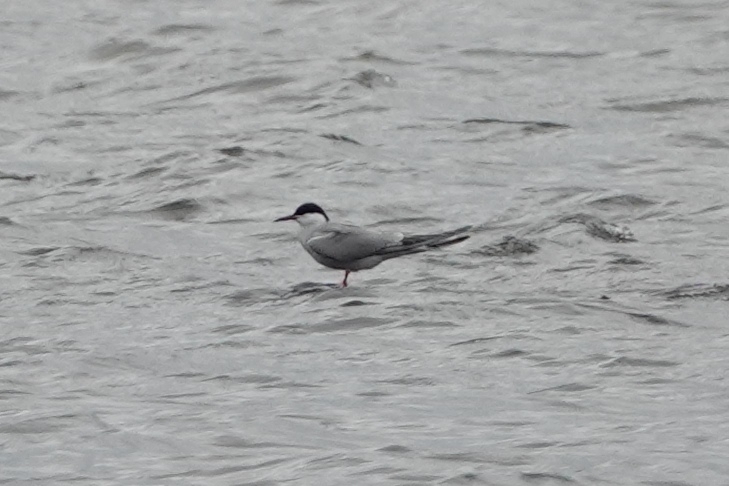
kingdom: Animalia
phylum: Chordata
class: Aves
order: Charadriiformes
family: Laridae
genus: Sterna
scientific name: Sterna hirundo
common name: Common tern
